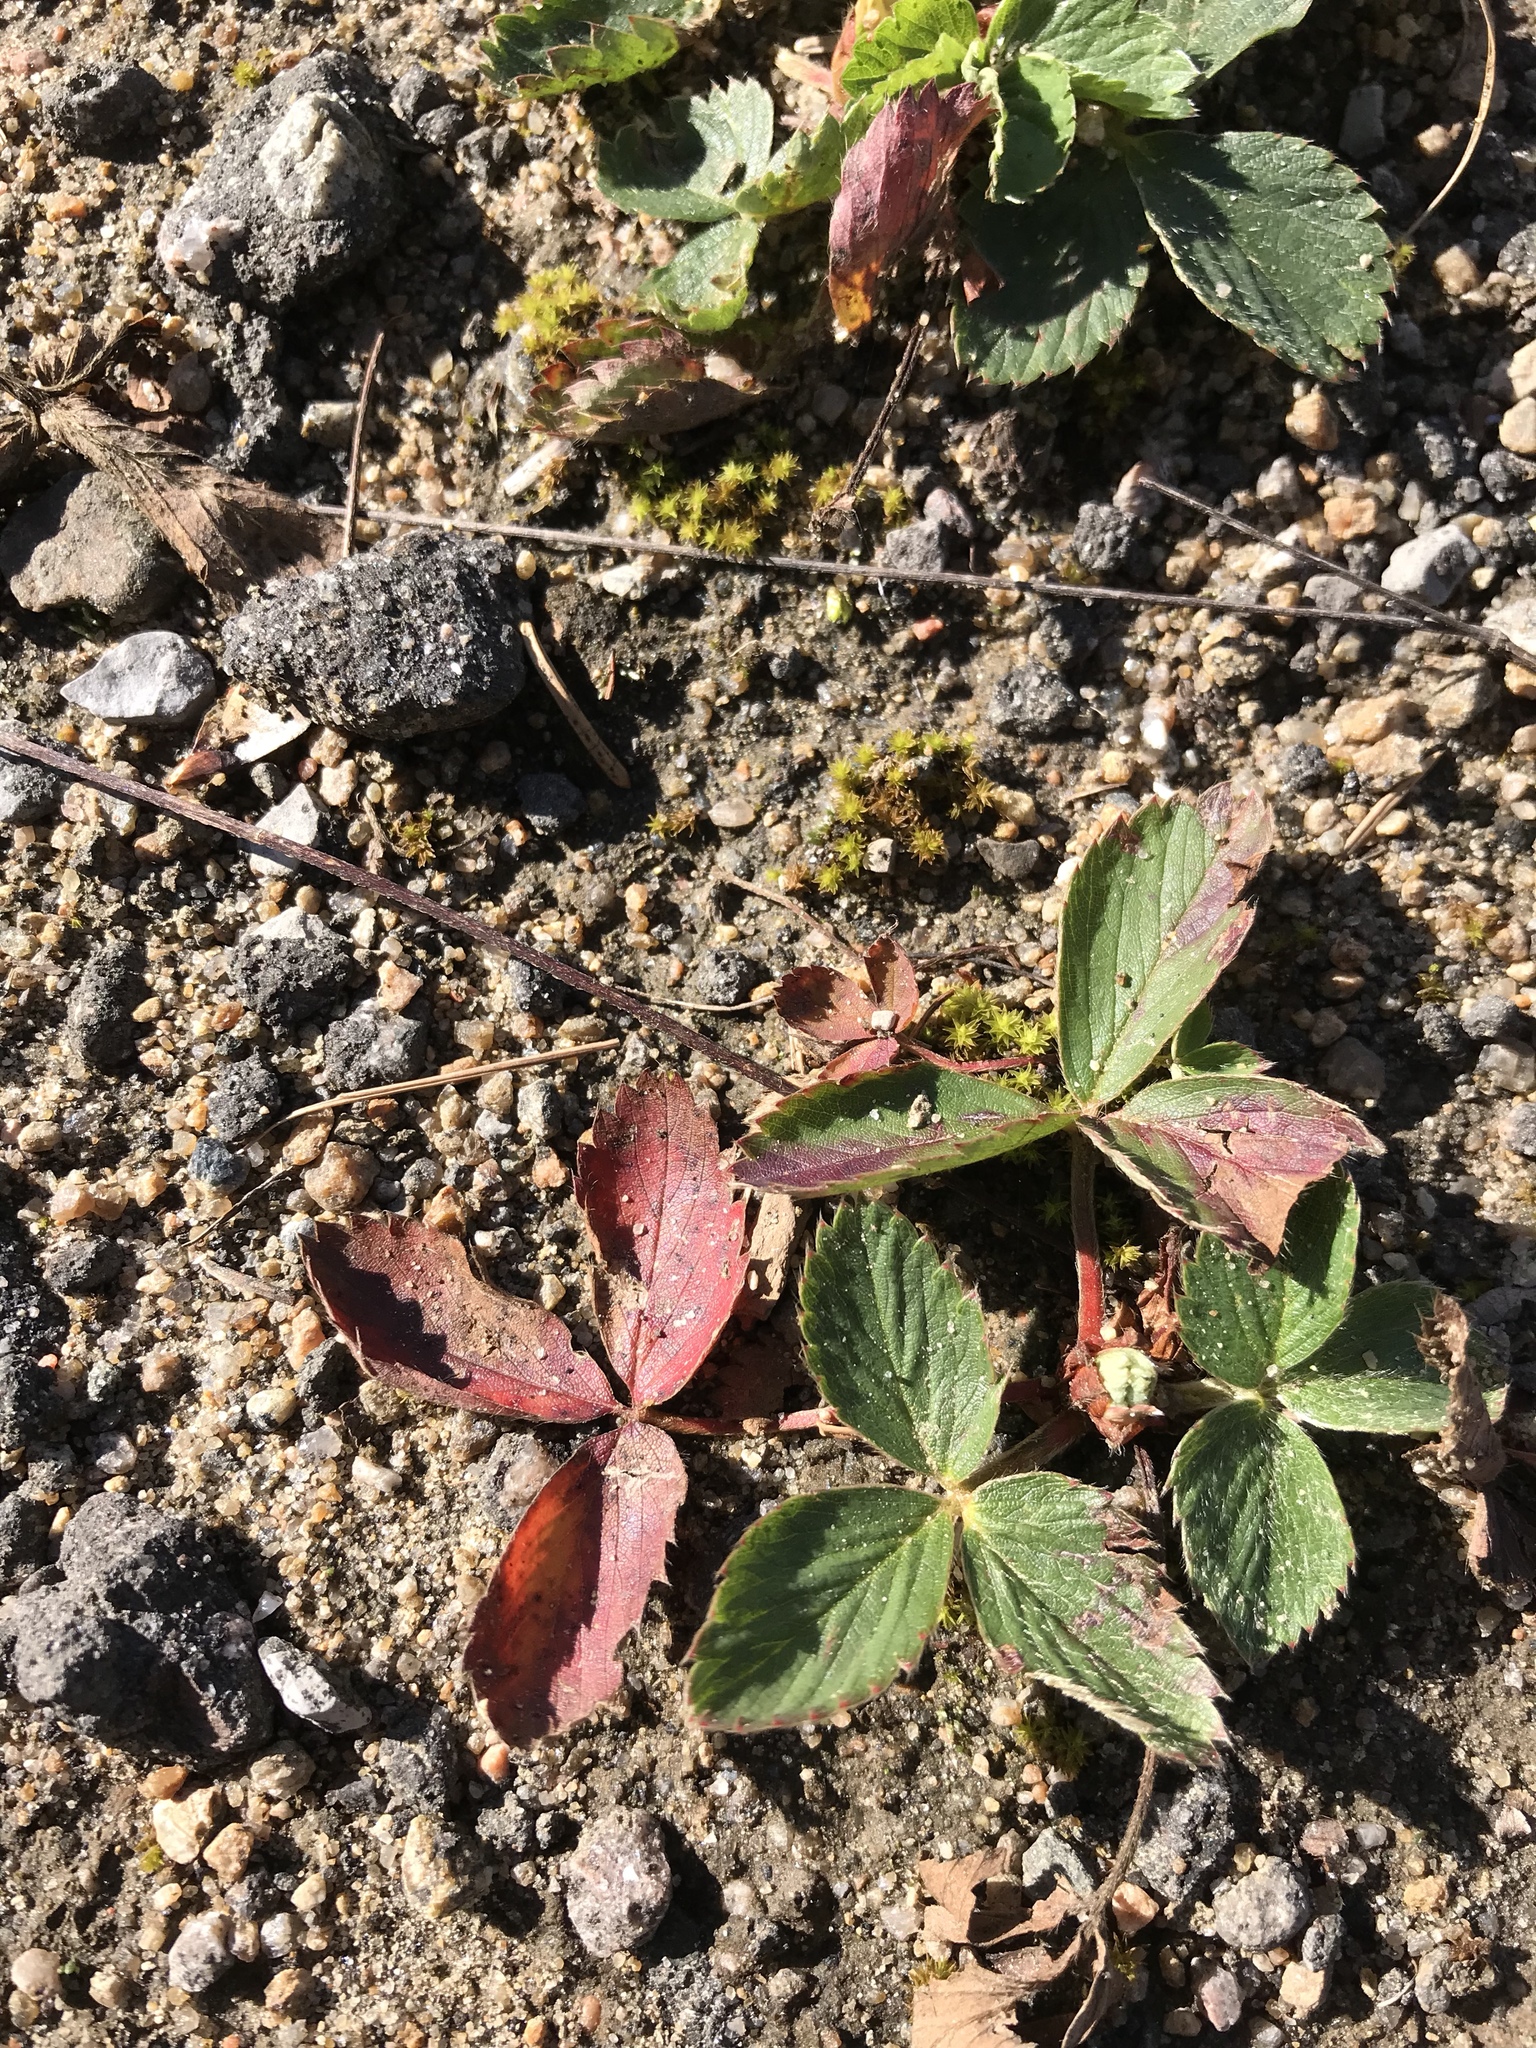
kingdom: Plantae
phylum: Tracheophyta
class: Magnoliopsida
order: Rosales
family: Rosaceae
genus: Fragaria
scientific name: Fragaria vesca
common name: Wild strawberry
